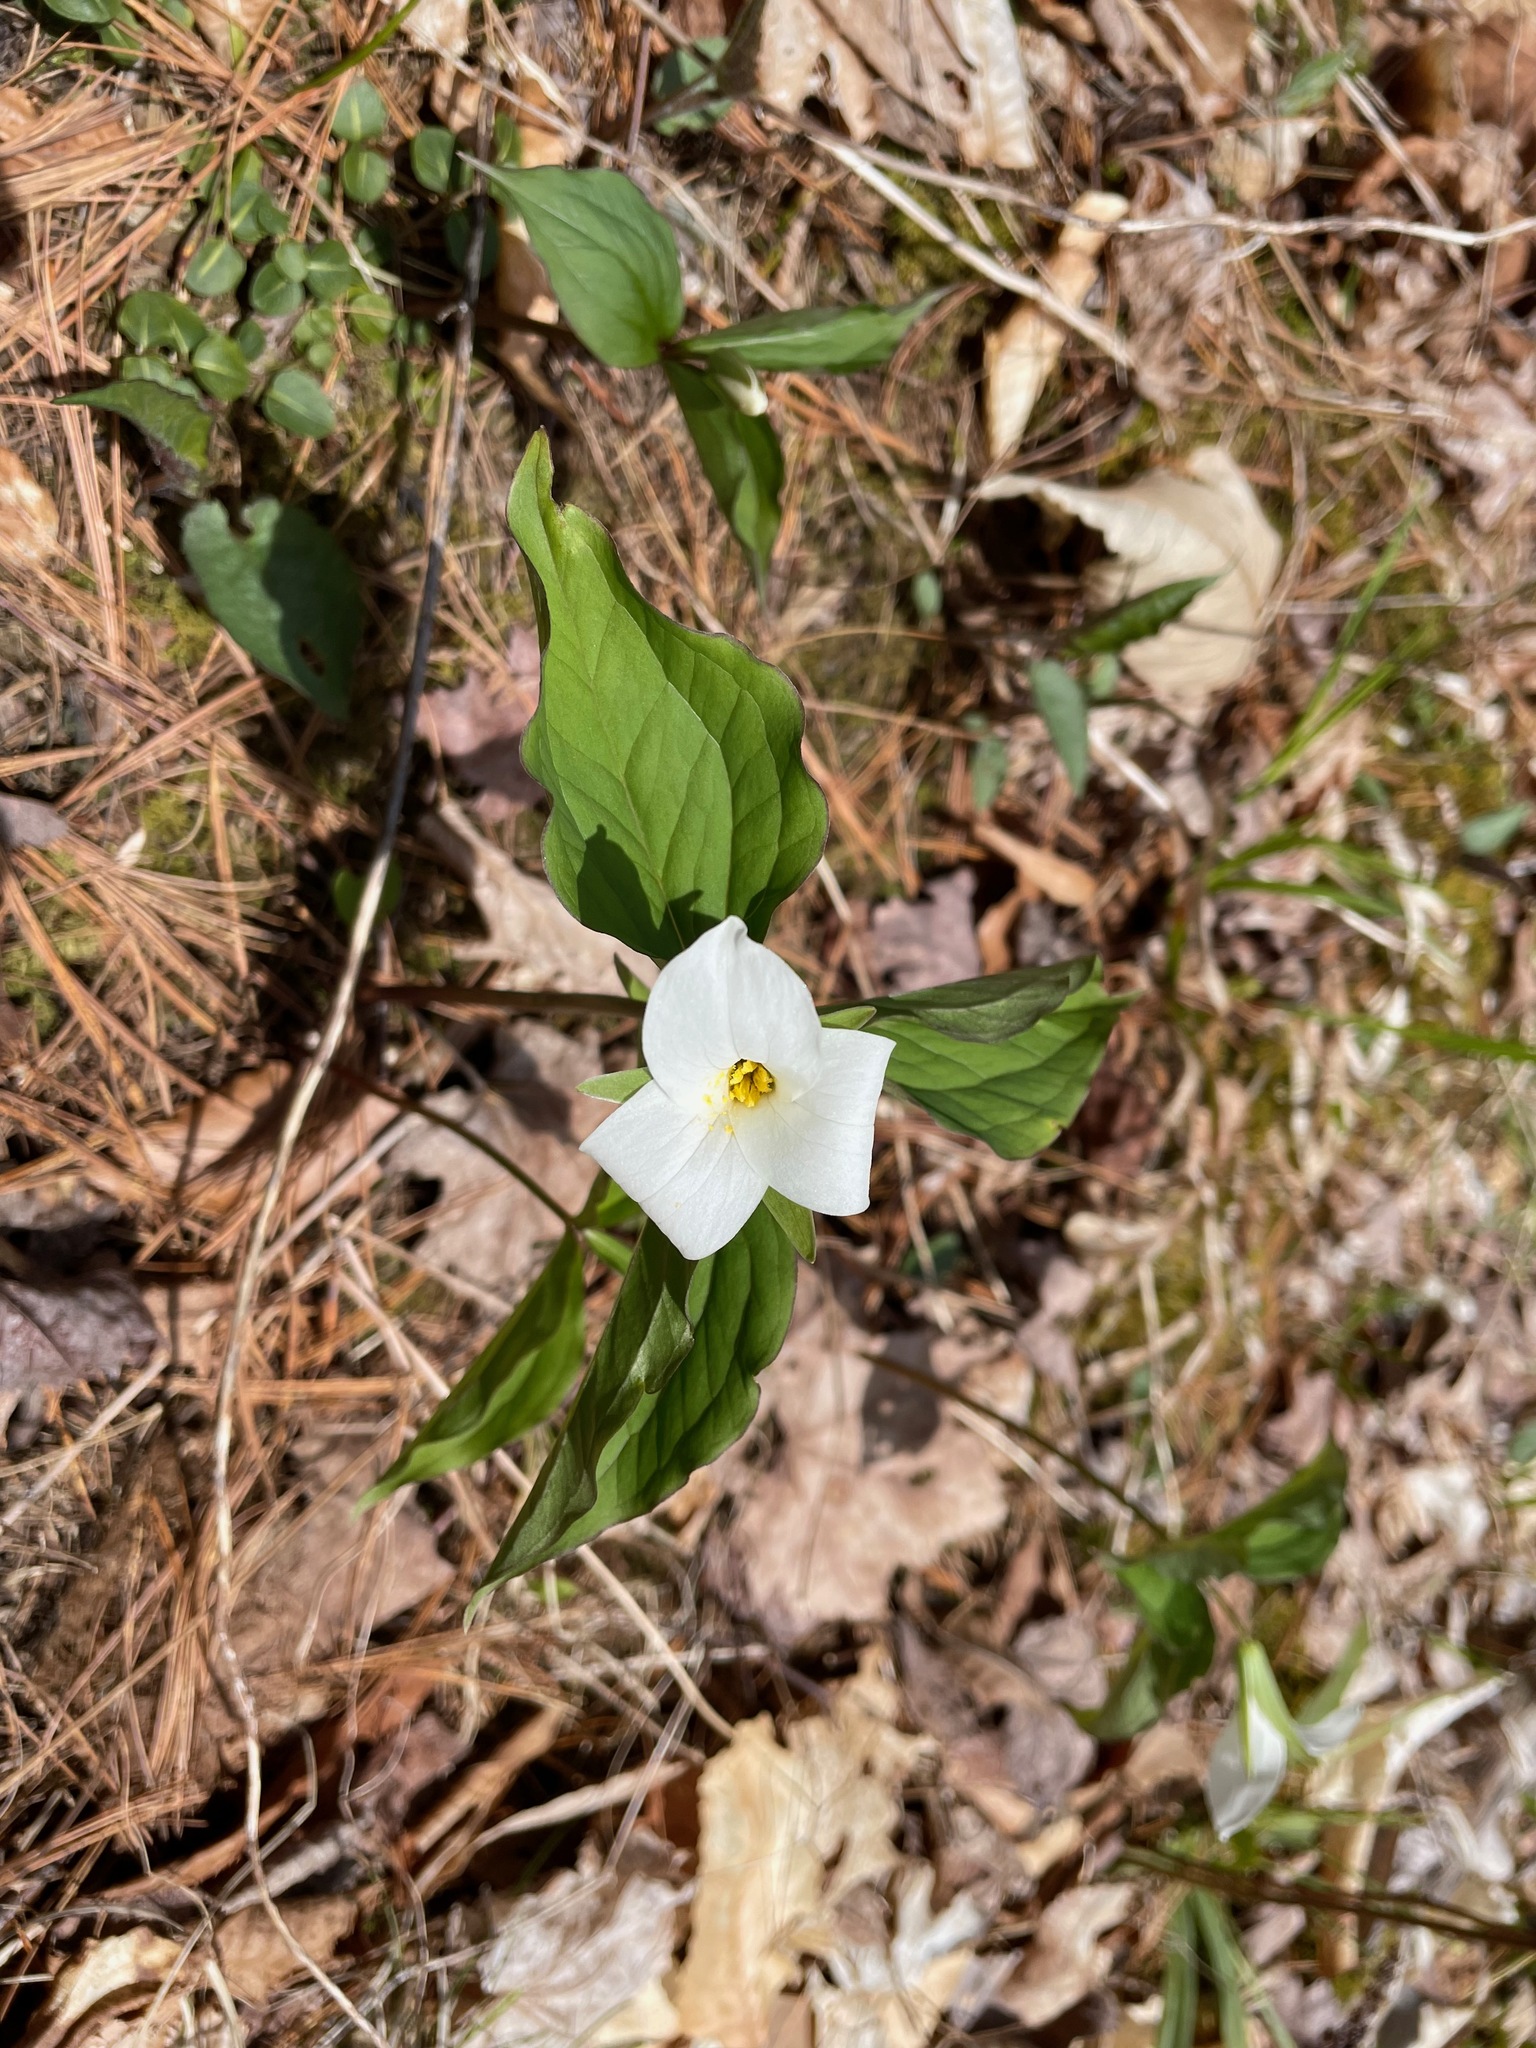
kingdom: Plantae
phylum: Tracheophyta
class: Liliopsida
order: Liliales
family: Melanthiaceae
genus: Trillium
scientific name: Trillium grandiflorum
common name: Great white trillium
